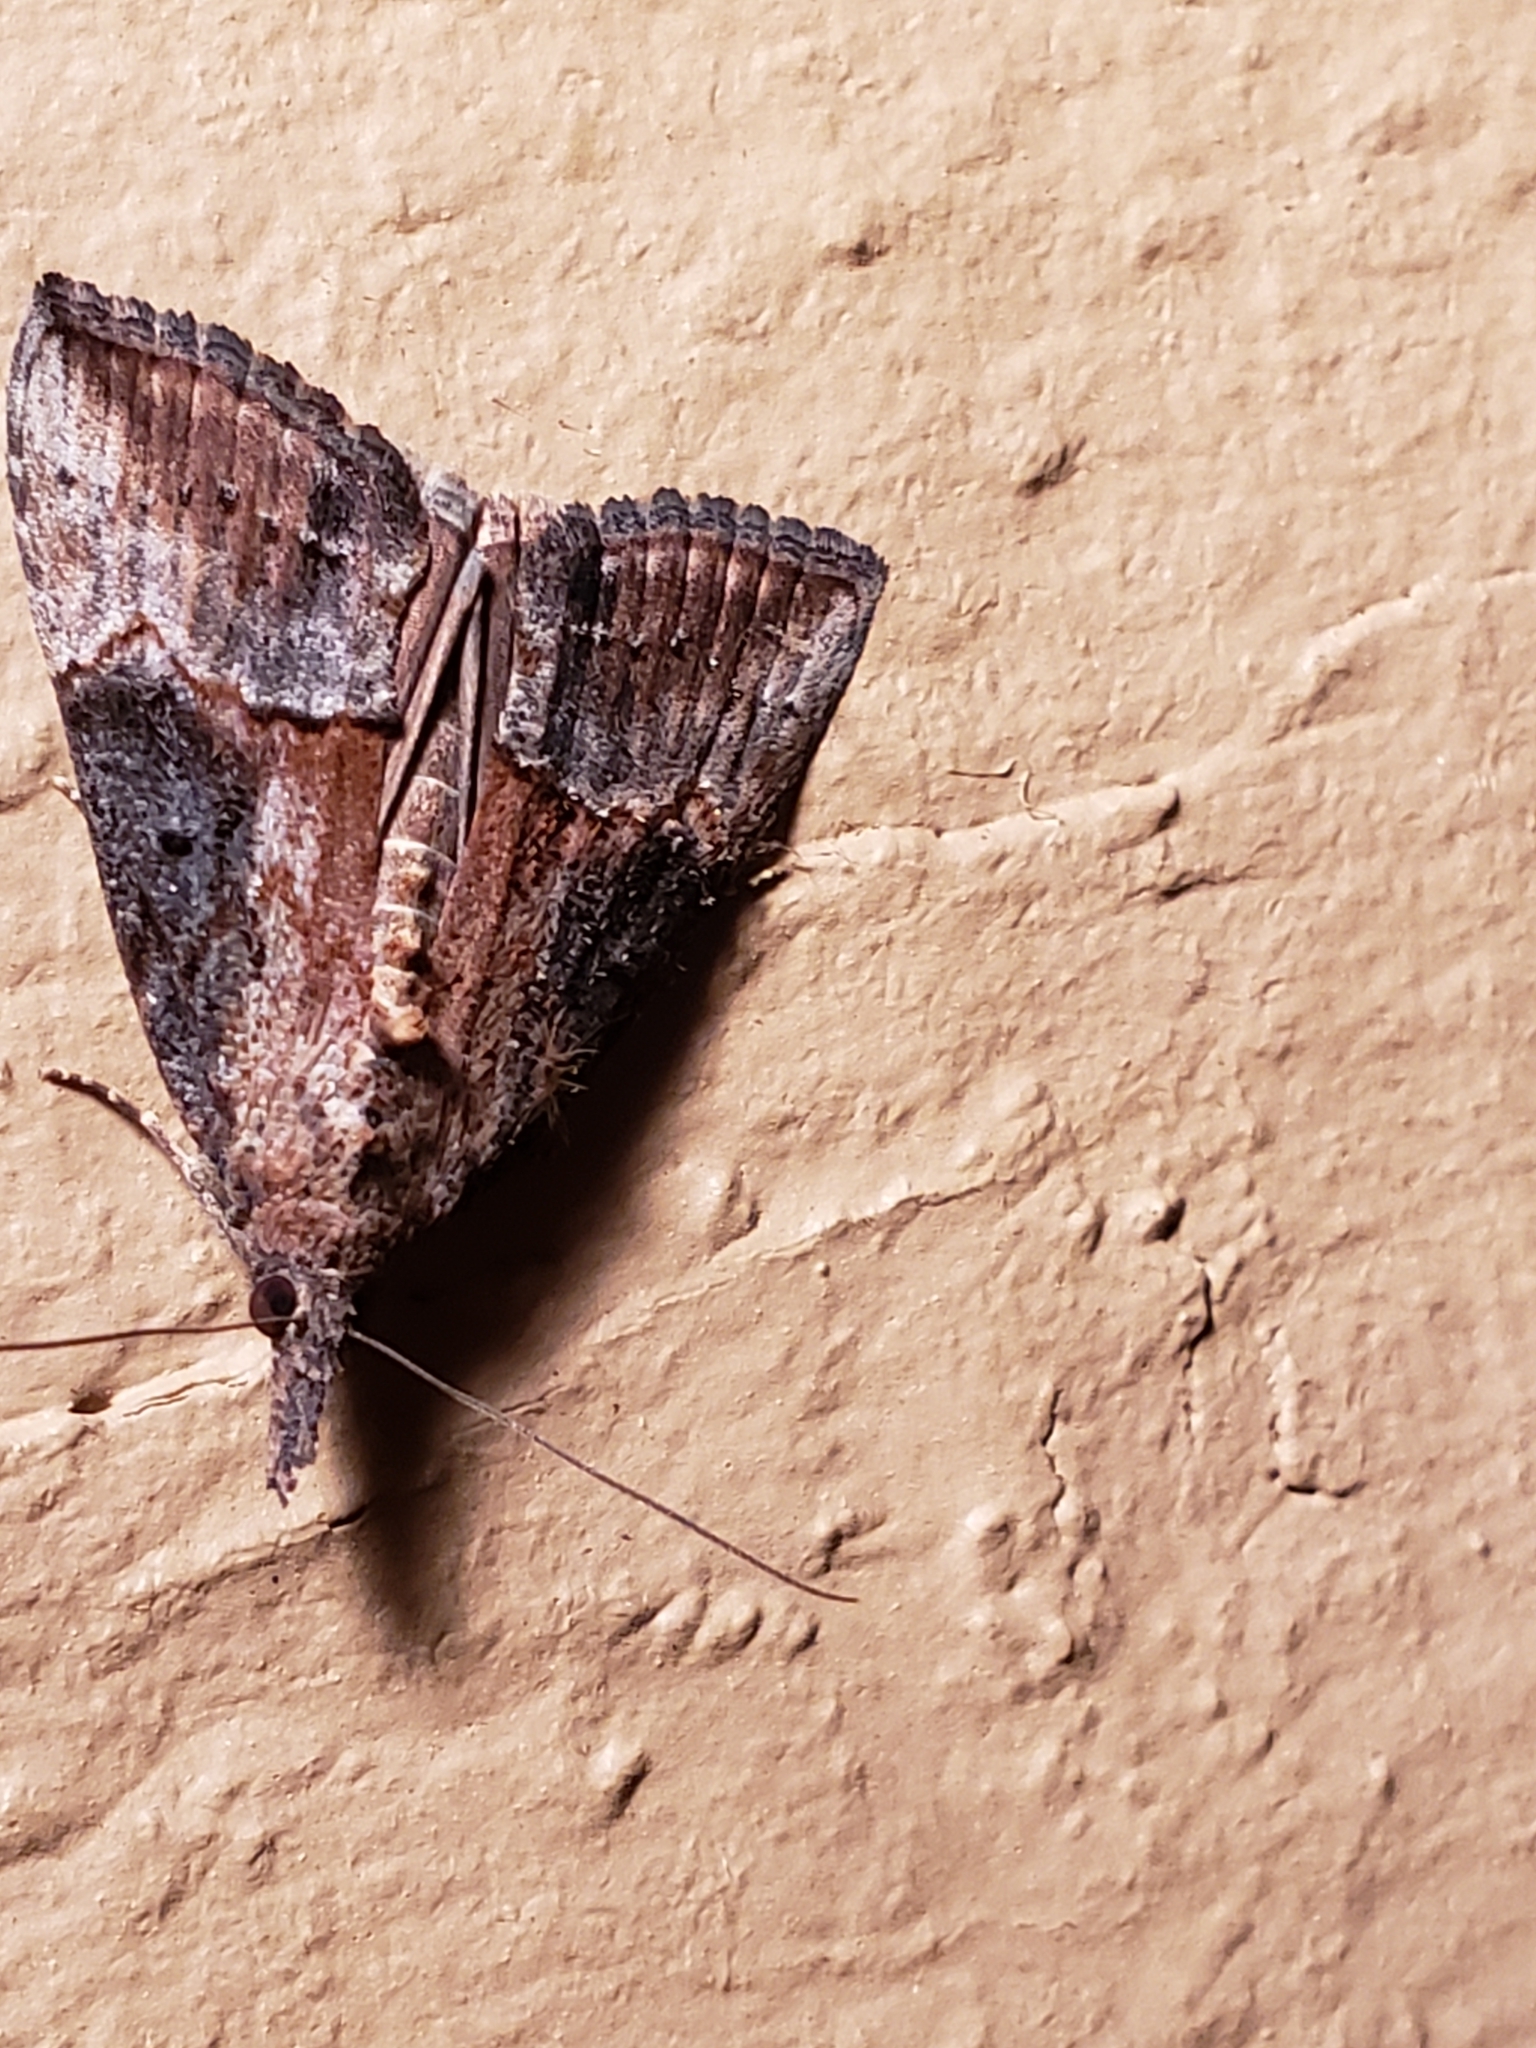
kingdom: Animalia
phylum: Arthropoda
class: Insecta
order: Lepidoptera
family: Erebidae
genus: Hypena
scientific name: Hypena scabra
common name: Green cloverworm
